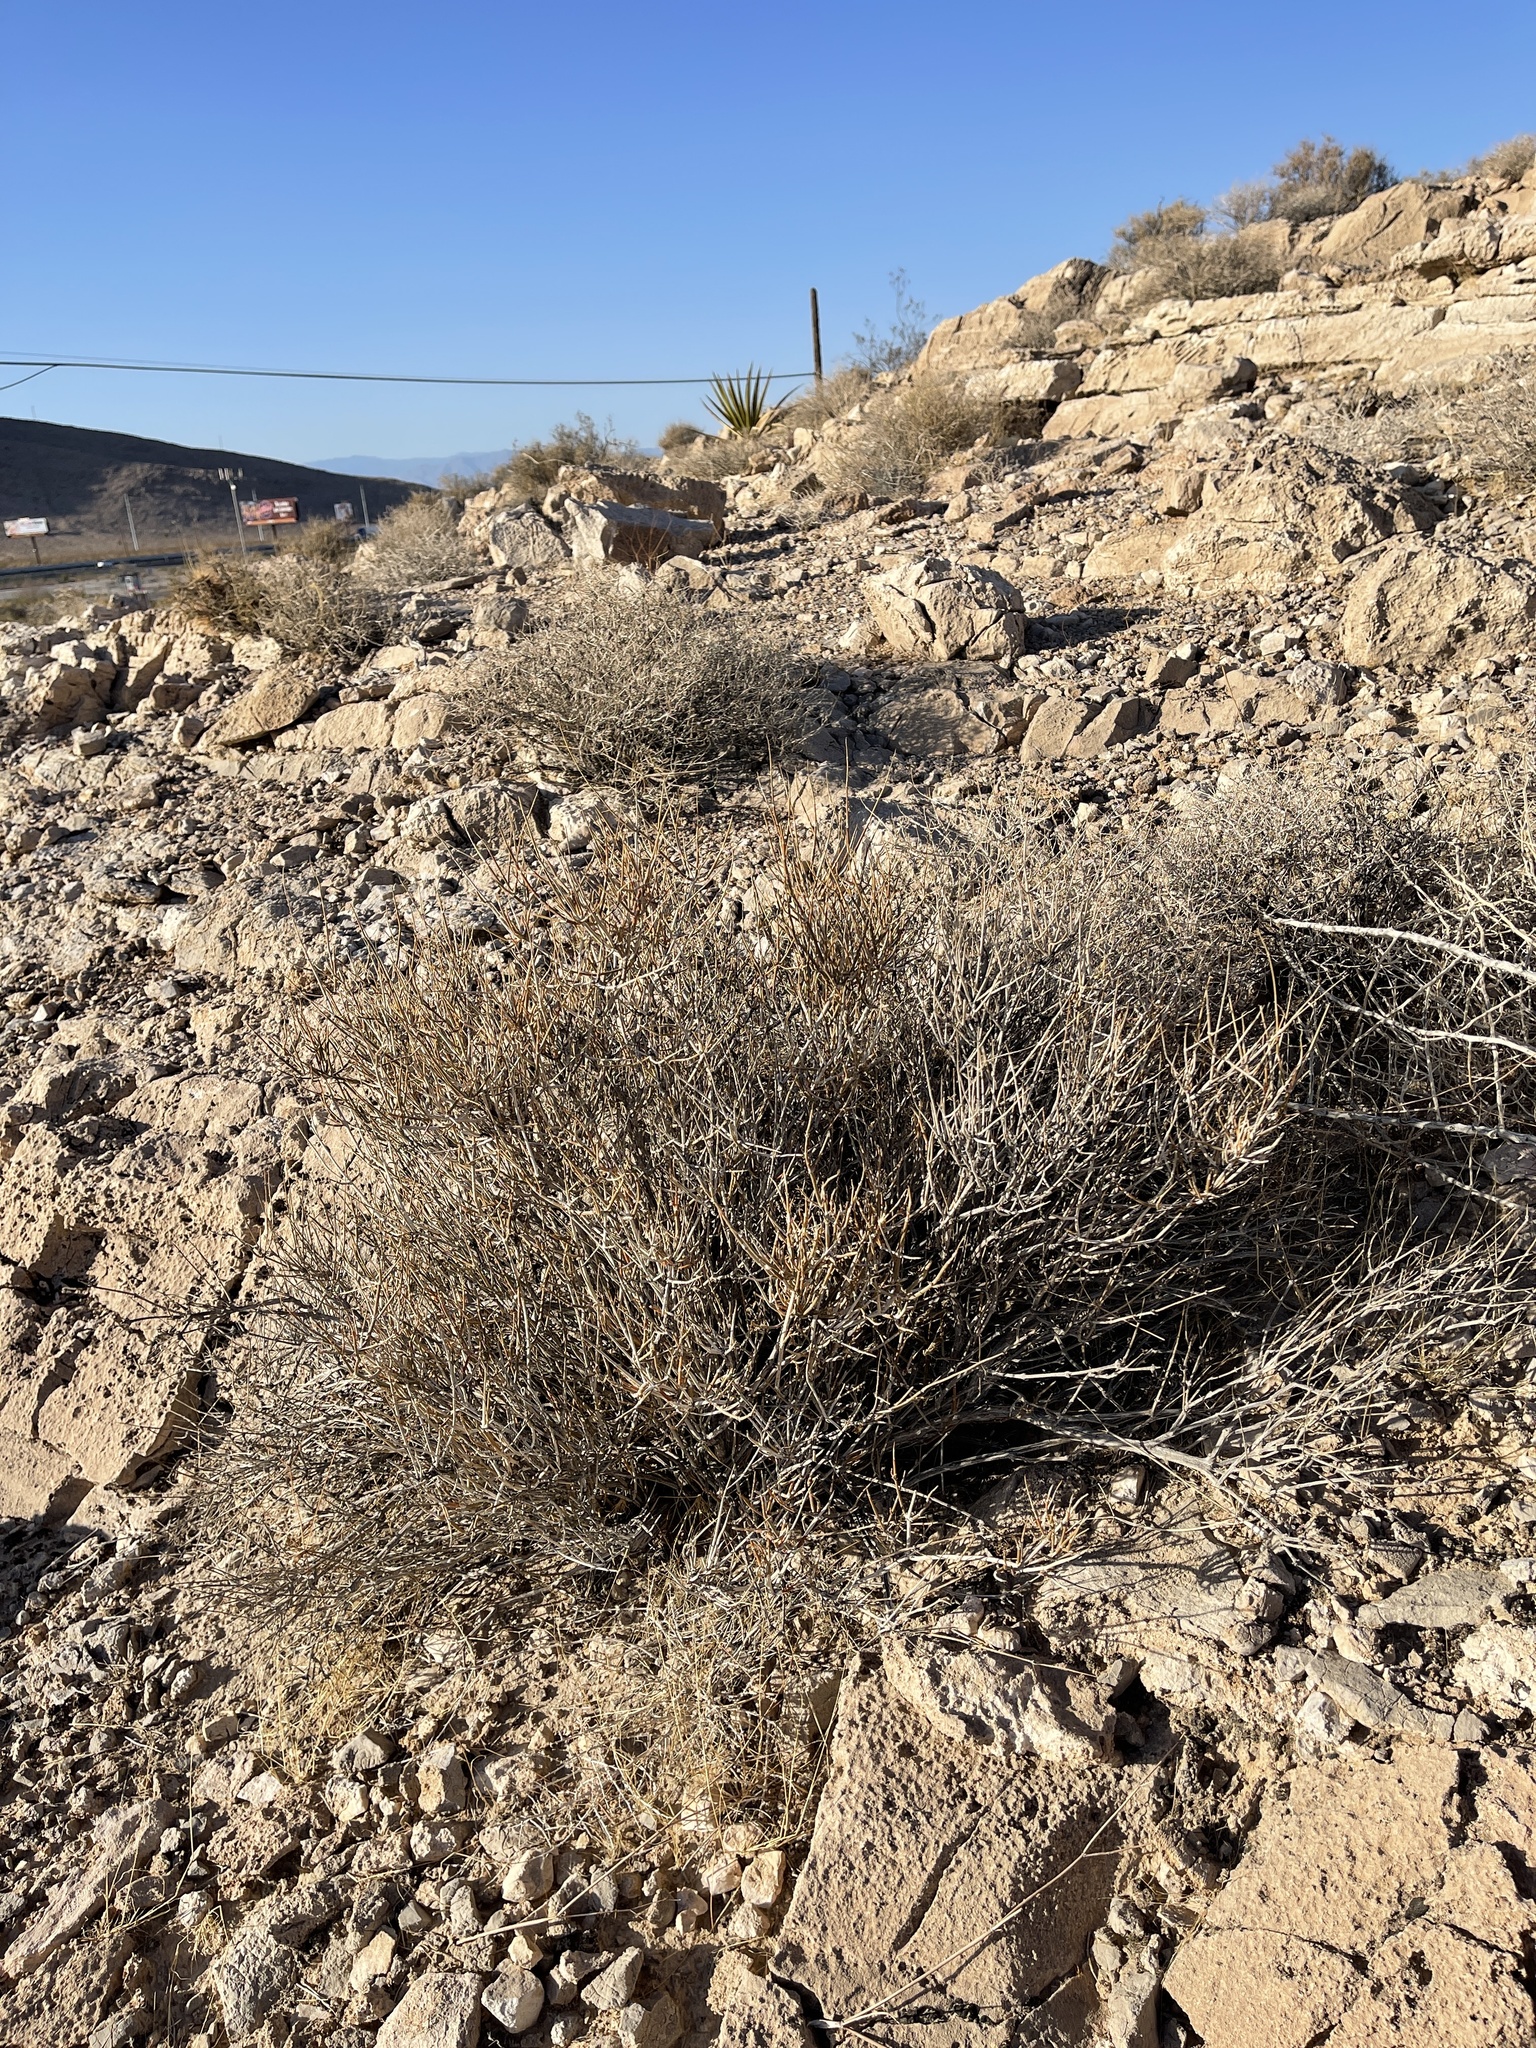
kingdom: Plantae
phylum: Tracheophyta
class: Gnetopsida
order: Ephedrales
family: Ephedraceae
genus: Ephedra
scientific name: Ephedra nevadensis
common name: Gray ephedra
